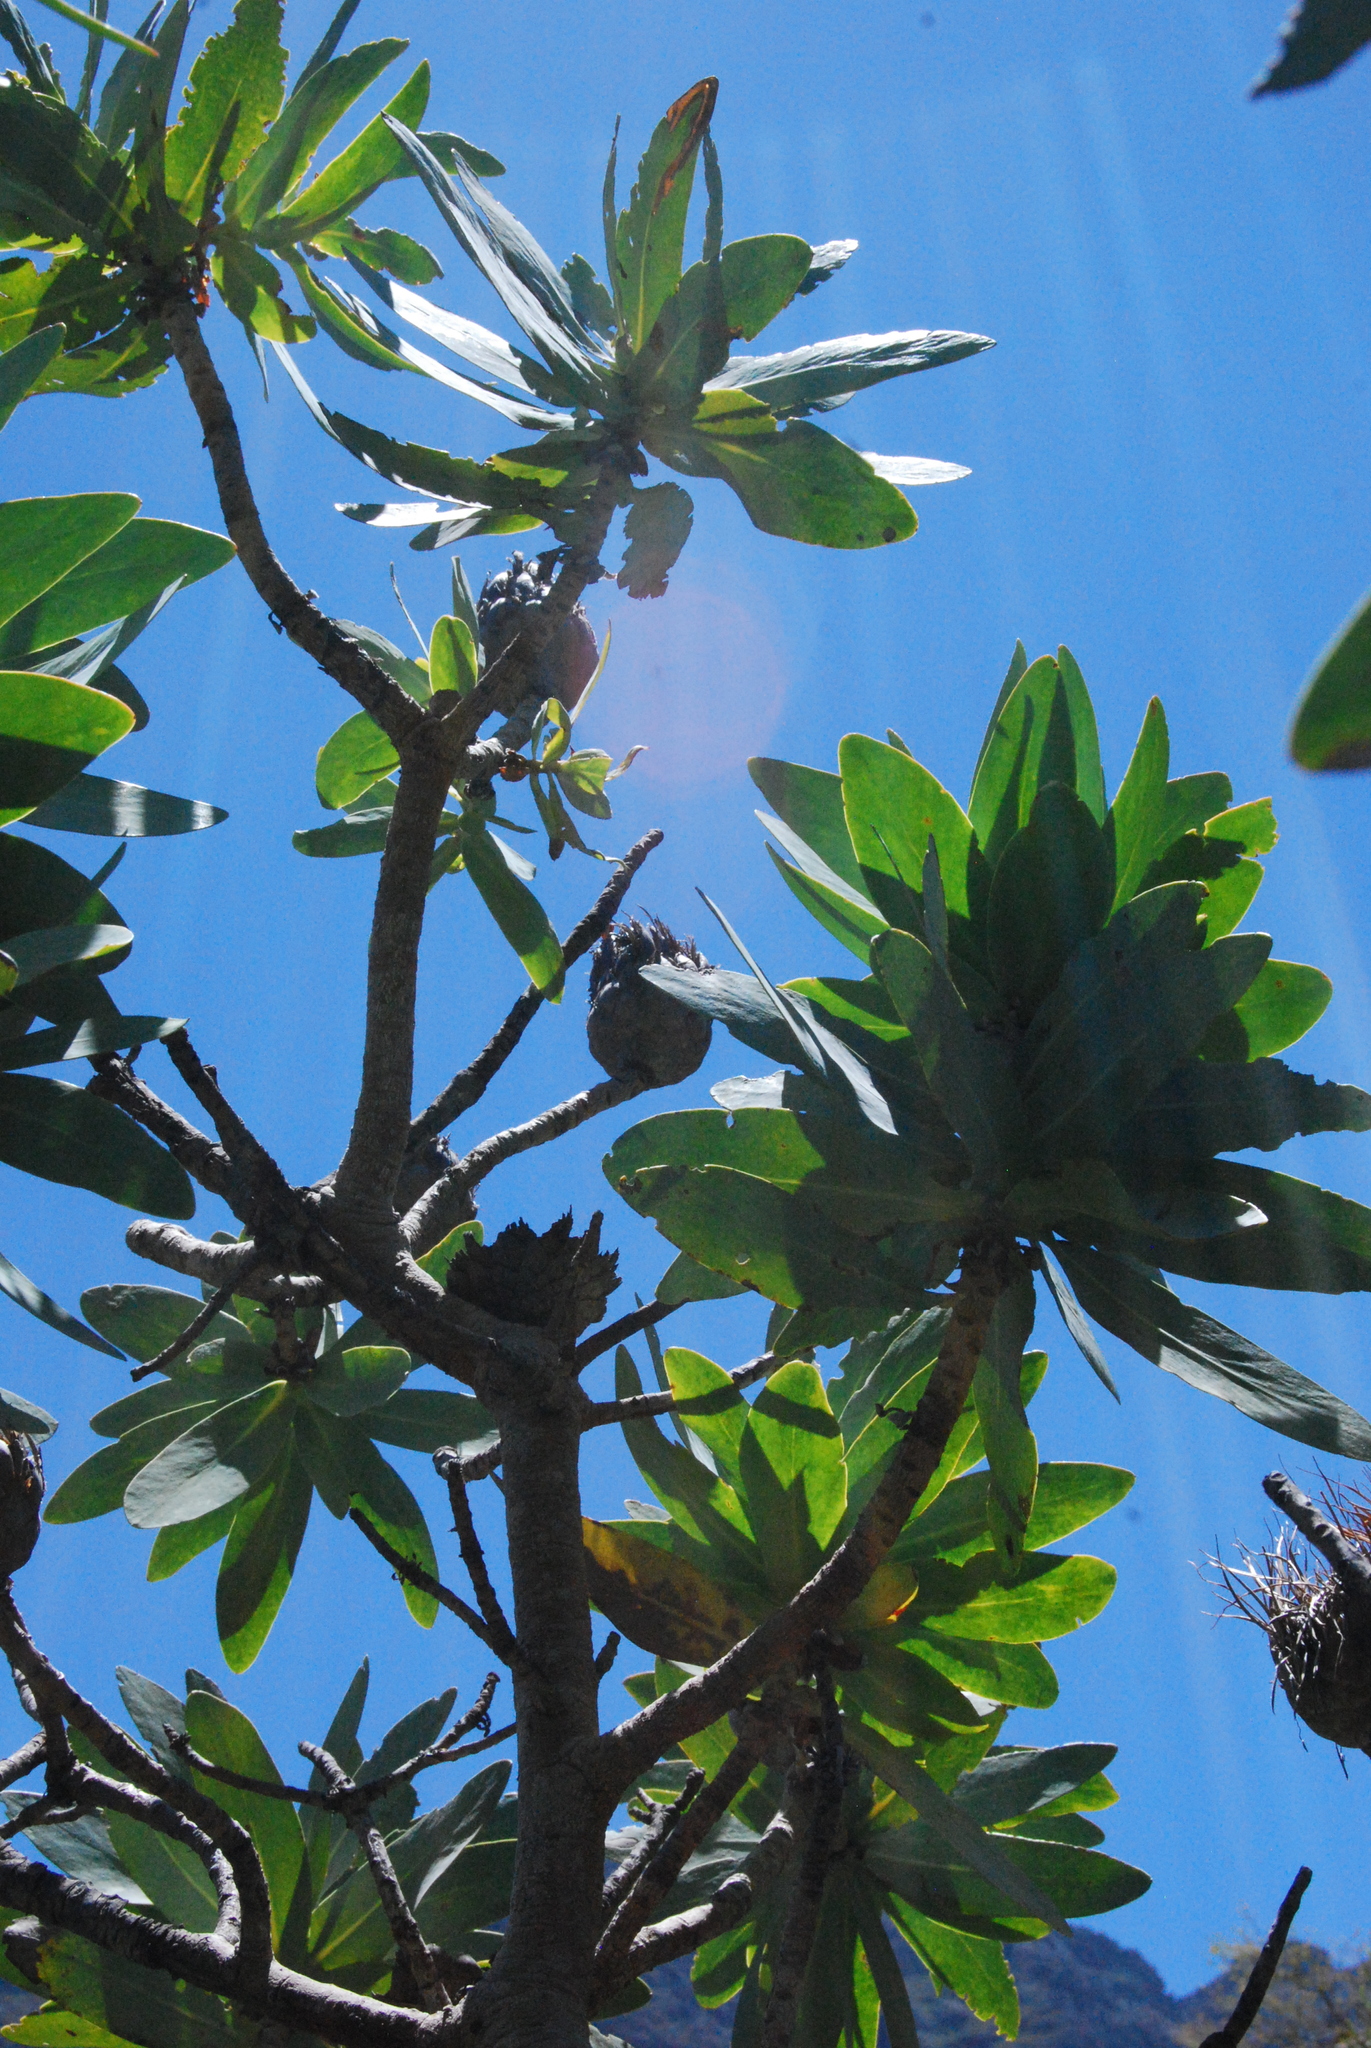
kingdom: Plantae
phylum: Tracheophyta
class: Magnoliopsida
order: Proteales
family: Proteaceae
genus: Protea
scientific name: Protea nitida
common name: Tree protea
